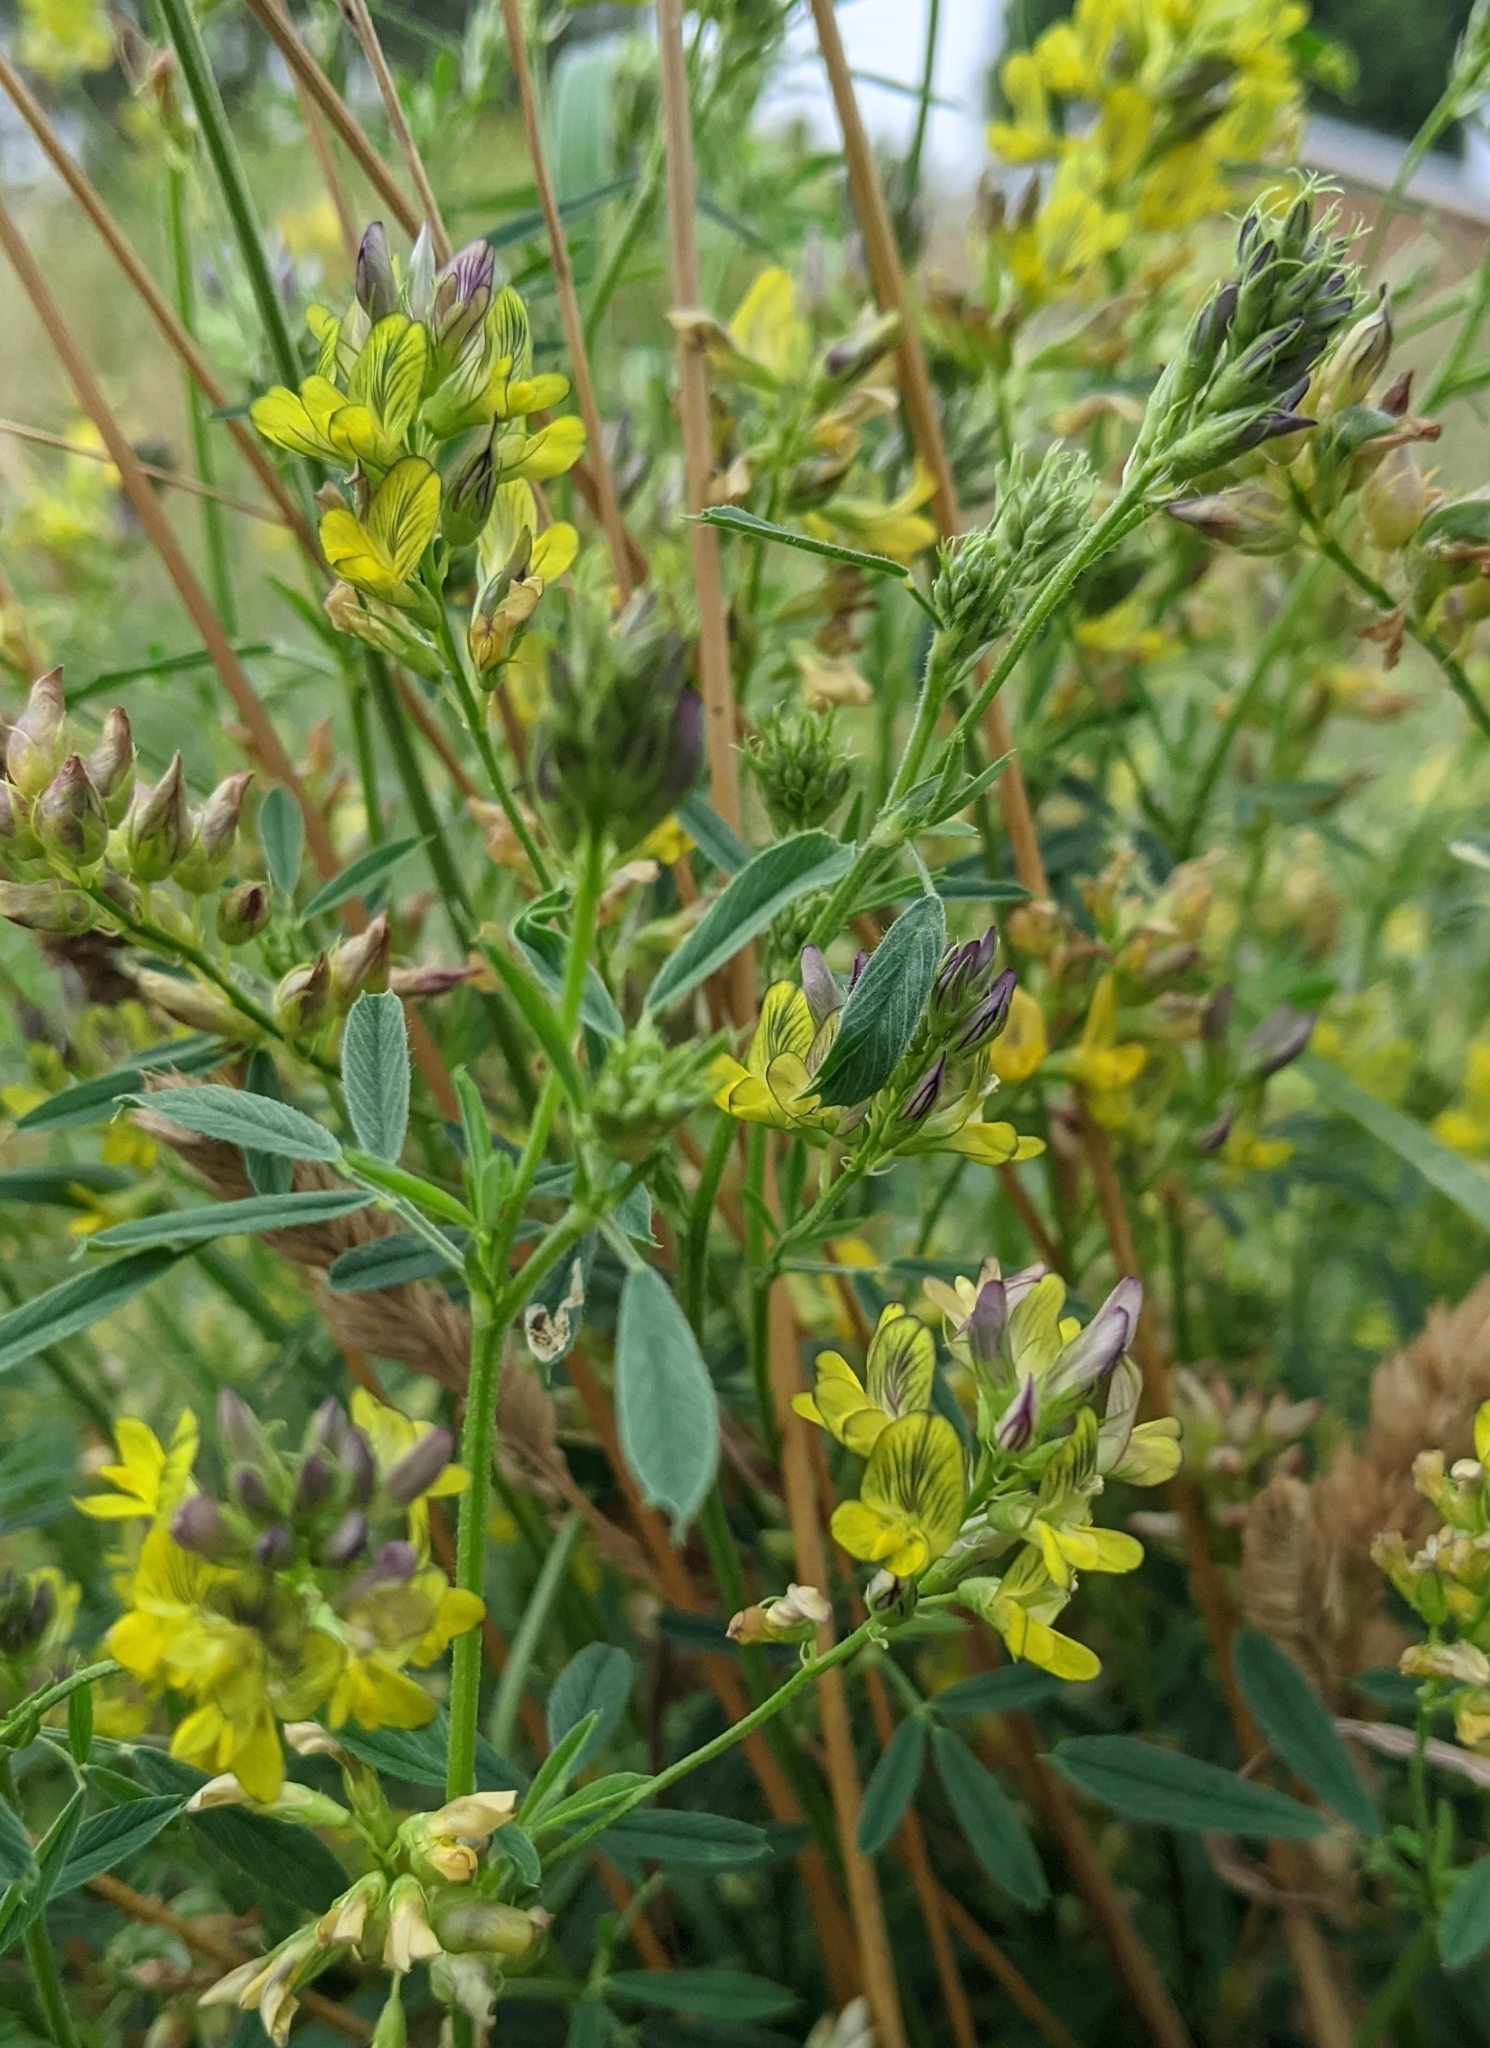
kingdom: Plantae
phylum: Tracheophyta
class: Magnoliopsida
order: Fabales
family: Fabaceae
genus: Medicago
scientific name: Medicago varia
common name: Sand lucerne
